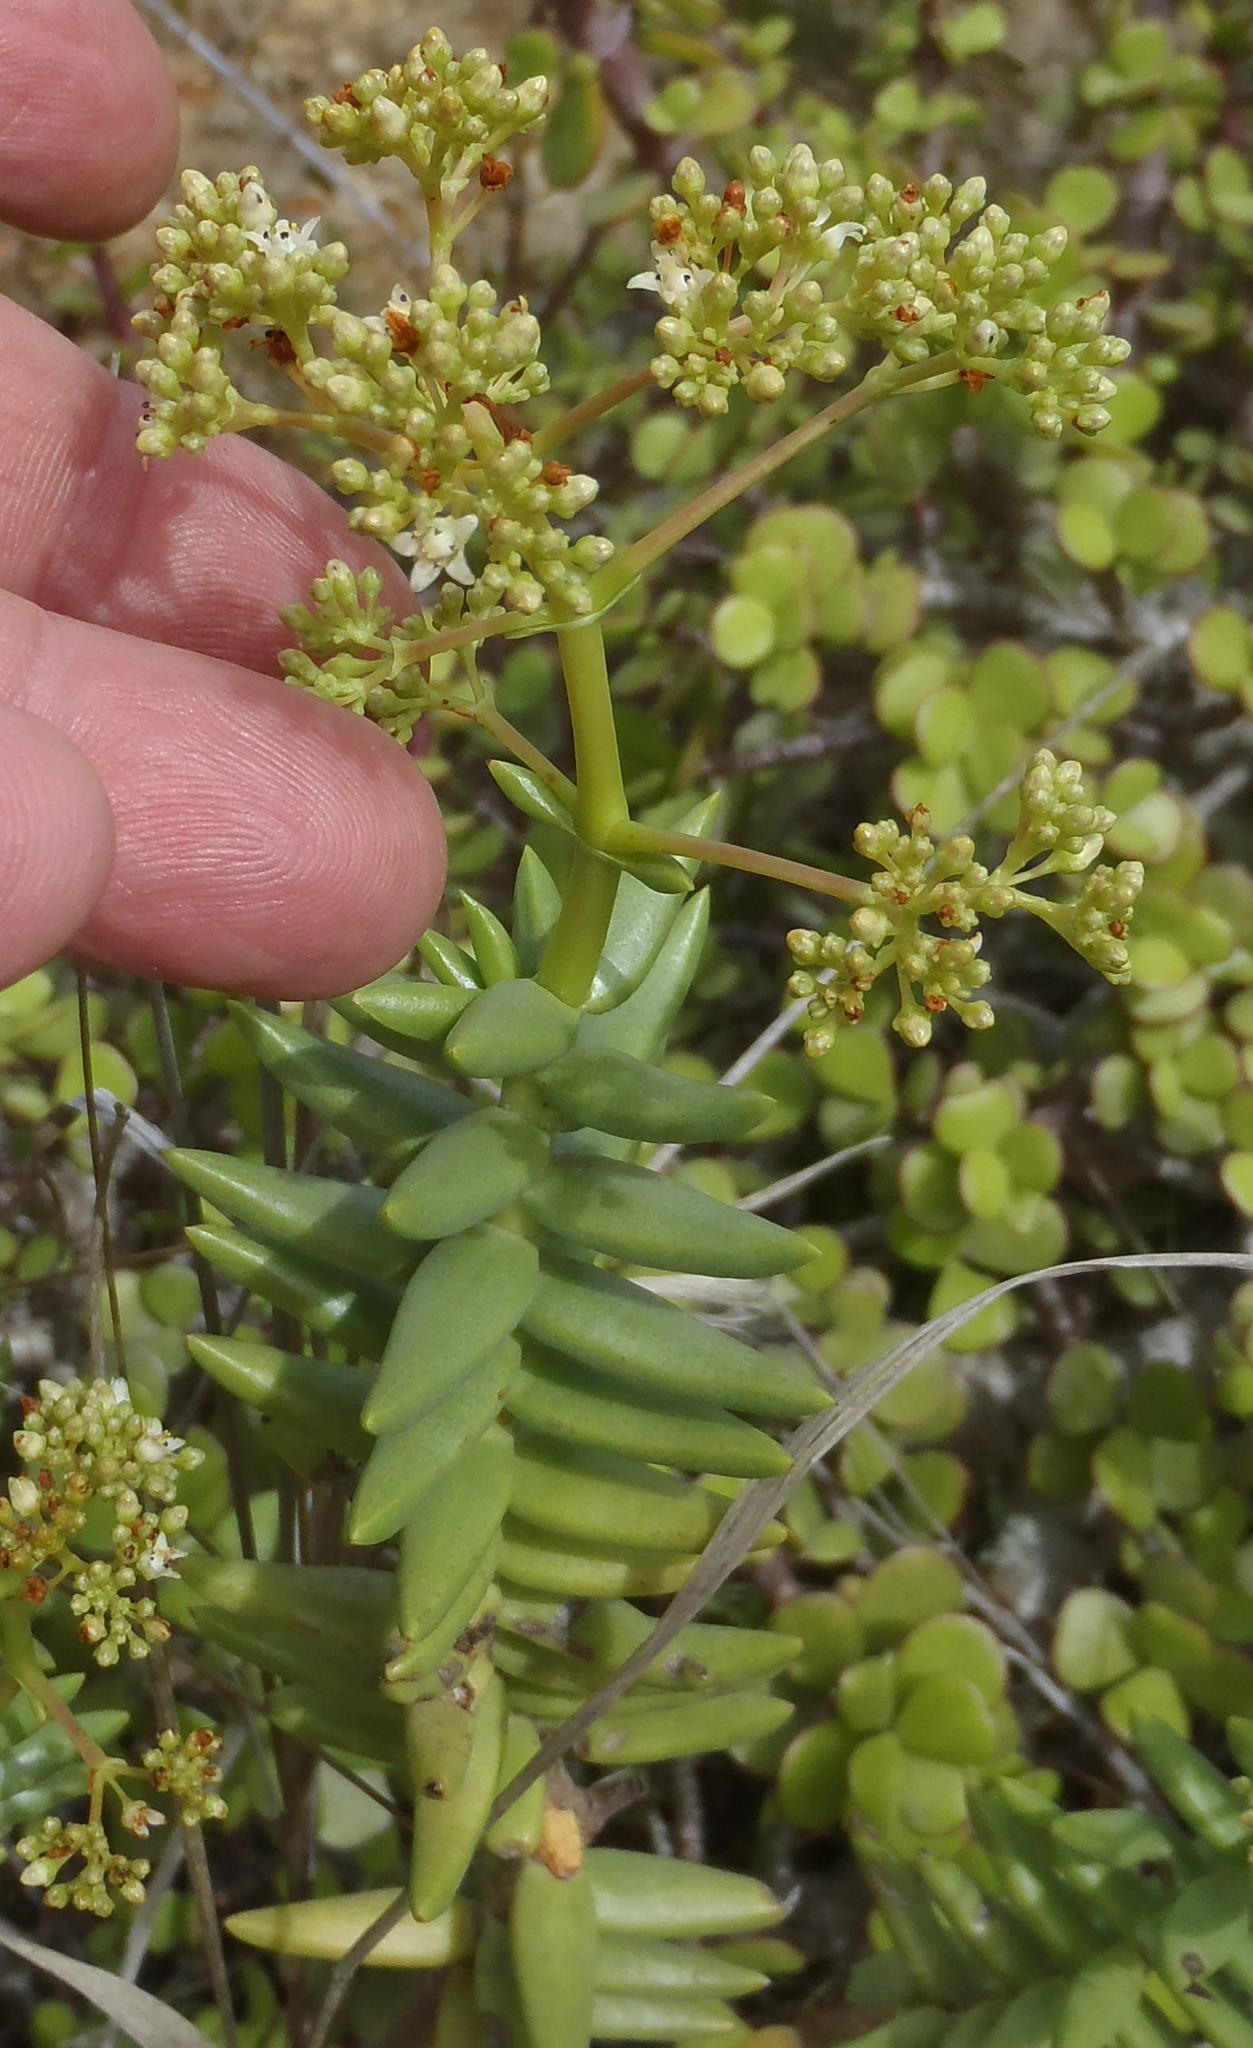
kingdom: Plantae
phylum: Tracheophyta
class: Magnoliopsida
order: Saxifragales
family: Crassulaceae
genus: Crassula
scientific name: Crassula tetragona
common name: Pygmyweed
